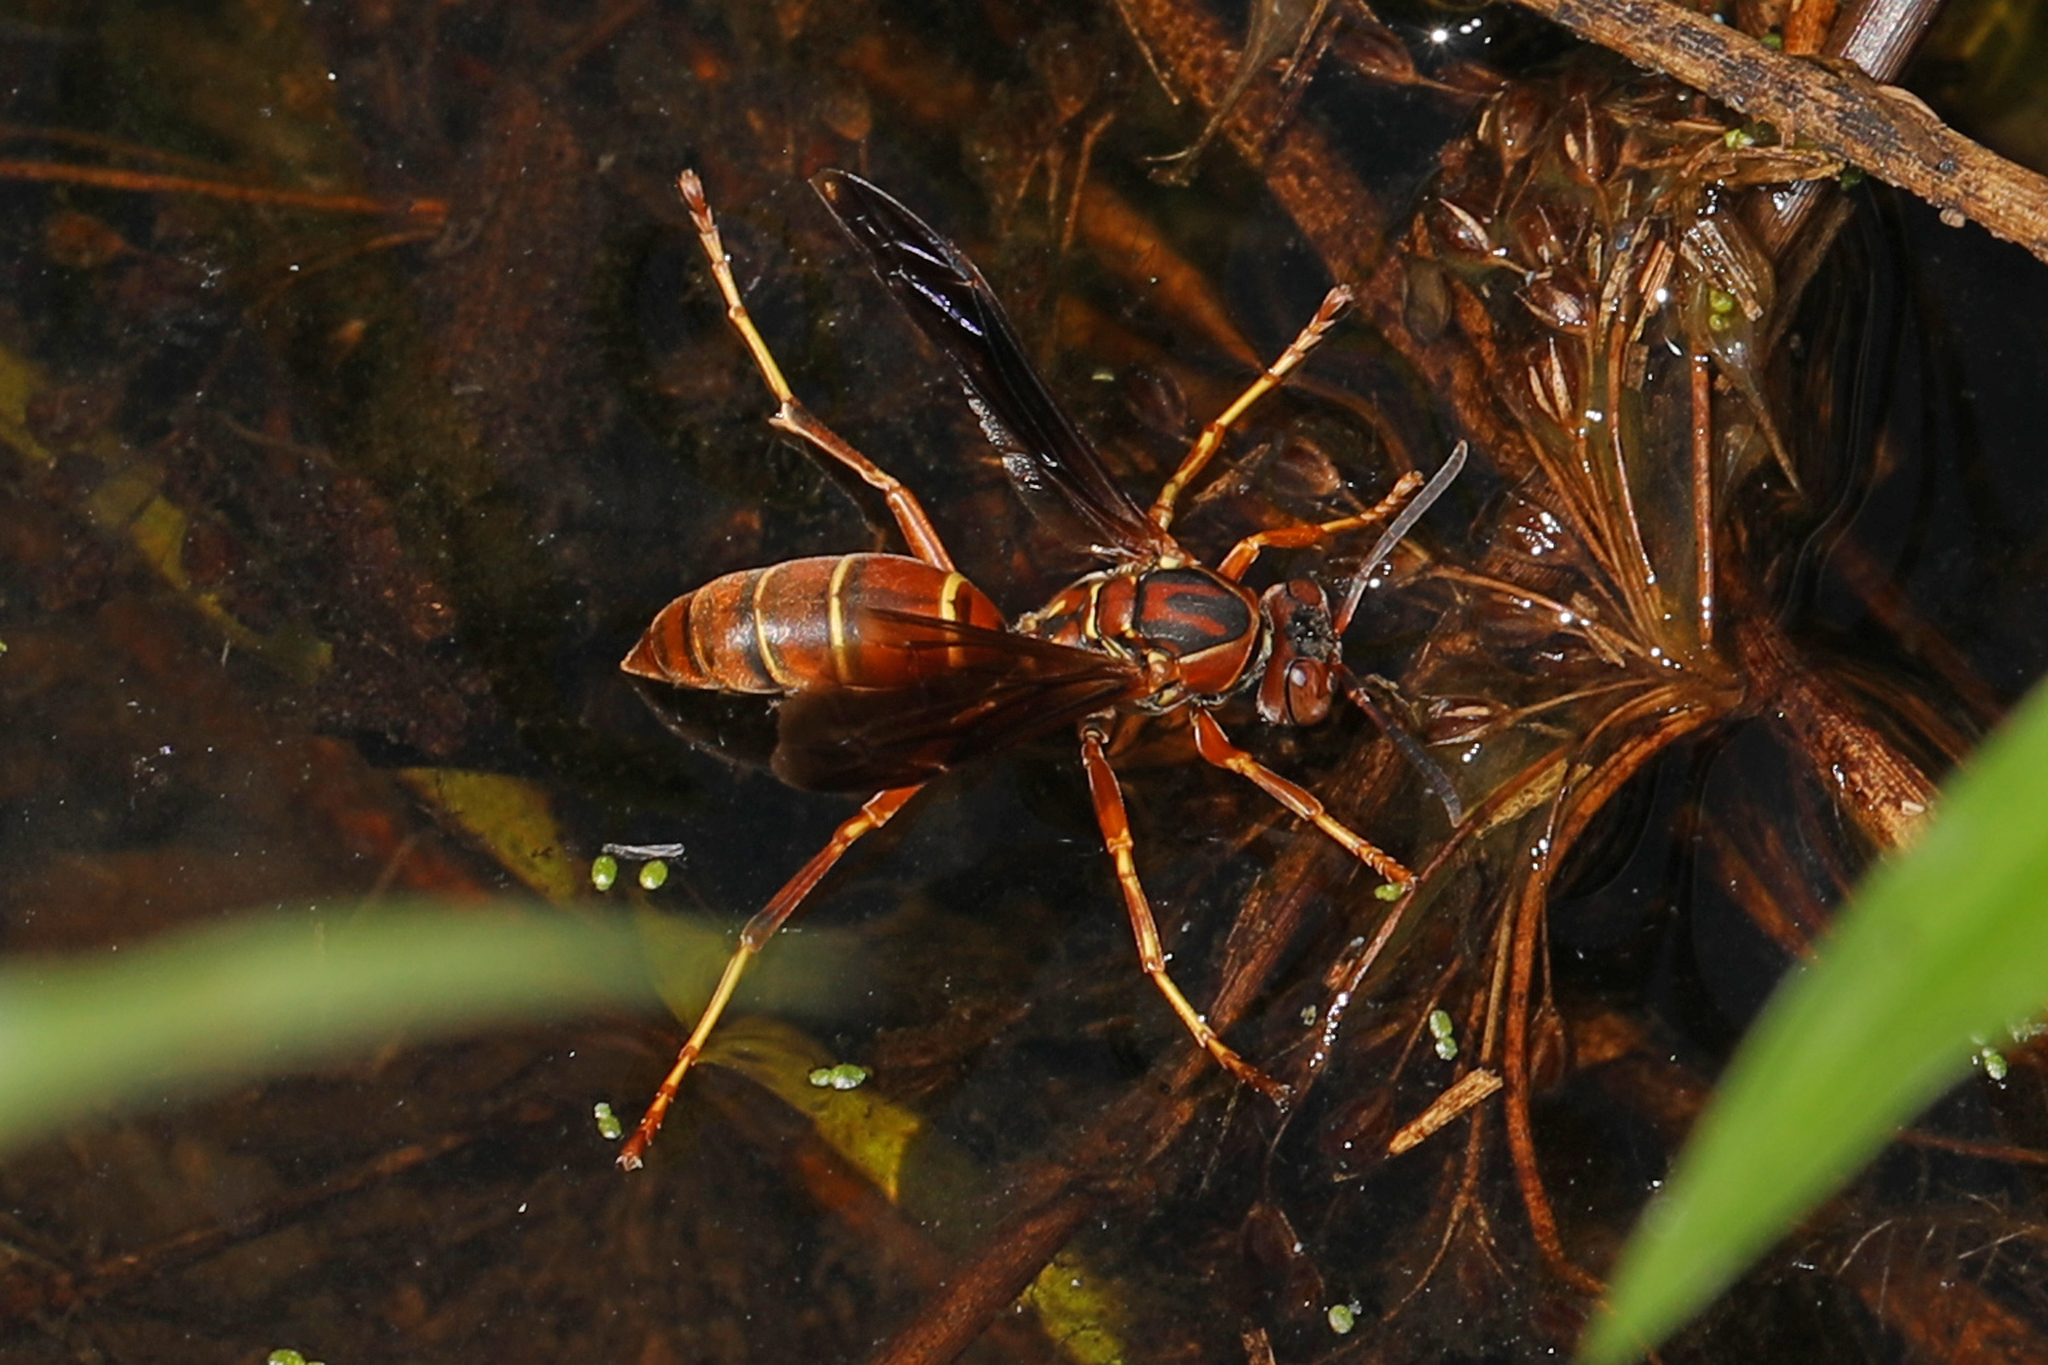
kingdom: Animalia
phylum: Arthropoda
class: Insecta
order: Hymenoptera
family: Eumenidae
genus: Polistes
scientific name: Polistes fuscatus
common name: Dark paper wasp
